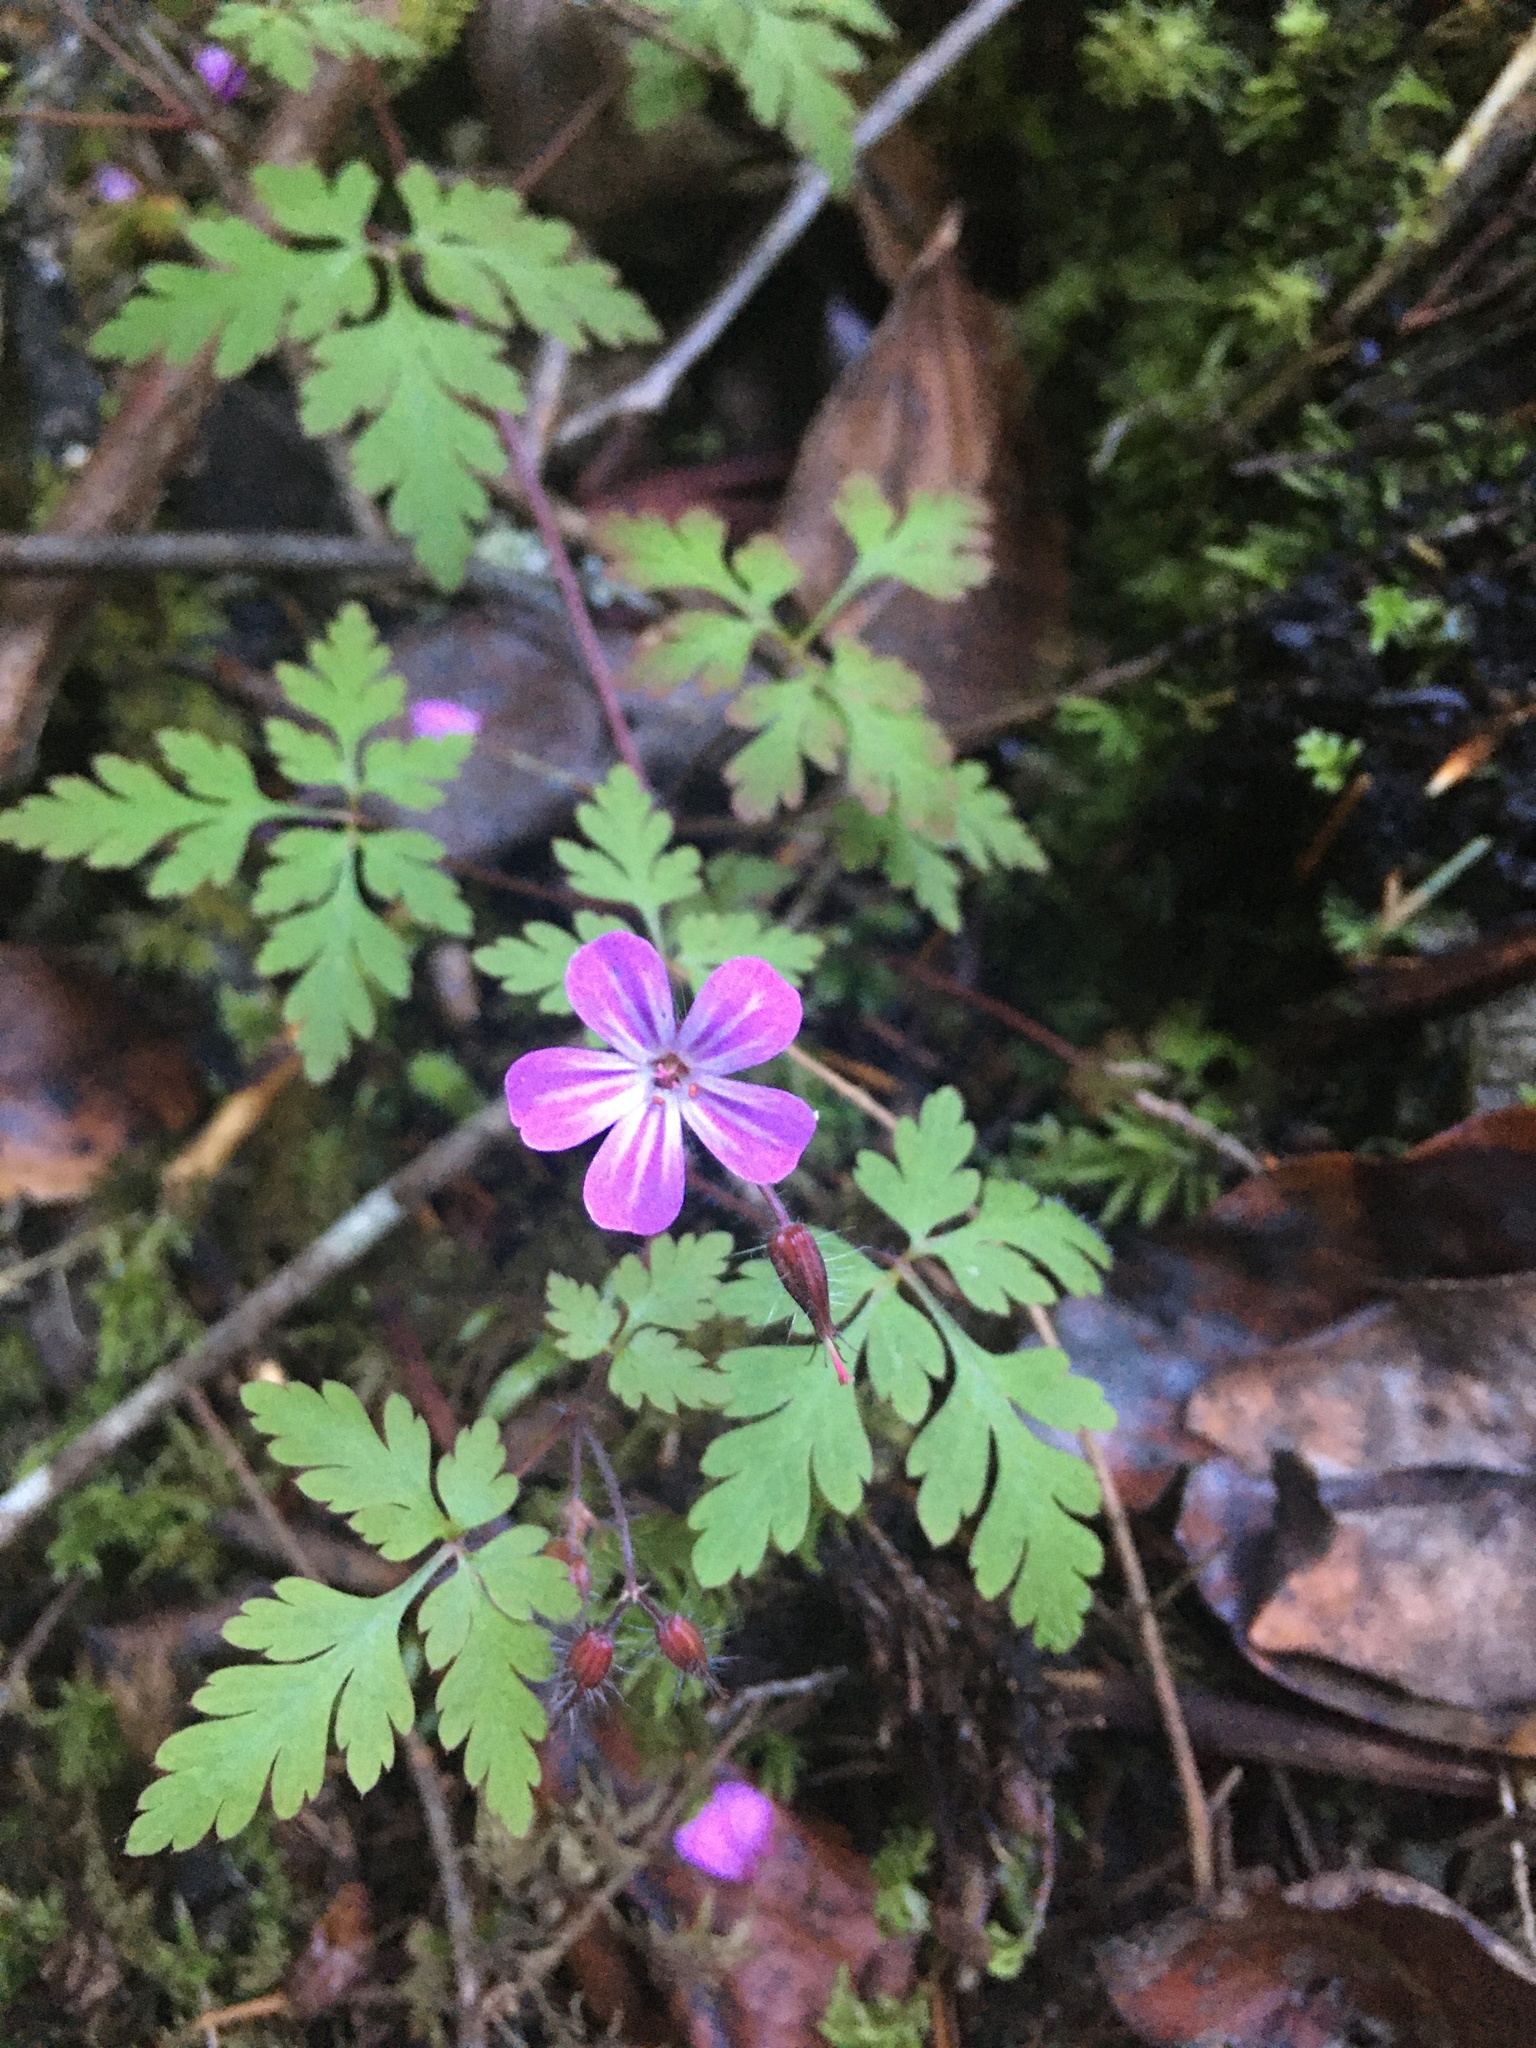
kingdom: Plantae
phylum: Tracheophyta
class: Magnoliopsida
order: Geraniales
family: Geraniaceae
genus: Geranium
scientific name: Geranium robertianum
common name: Herb-robert
